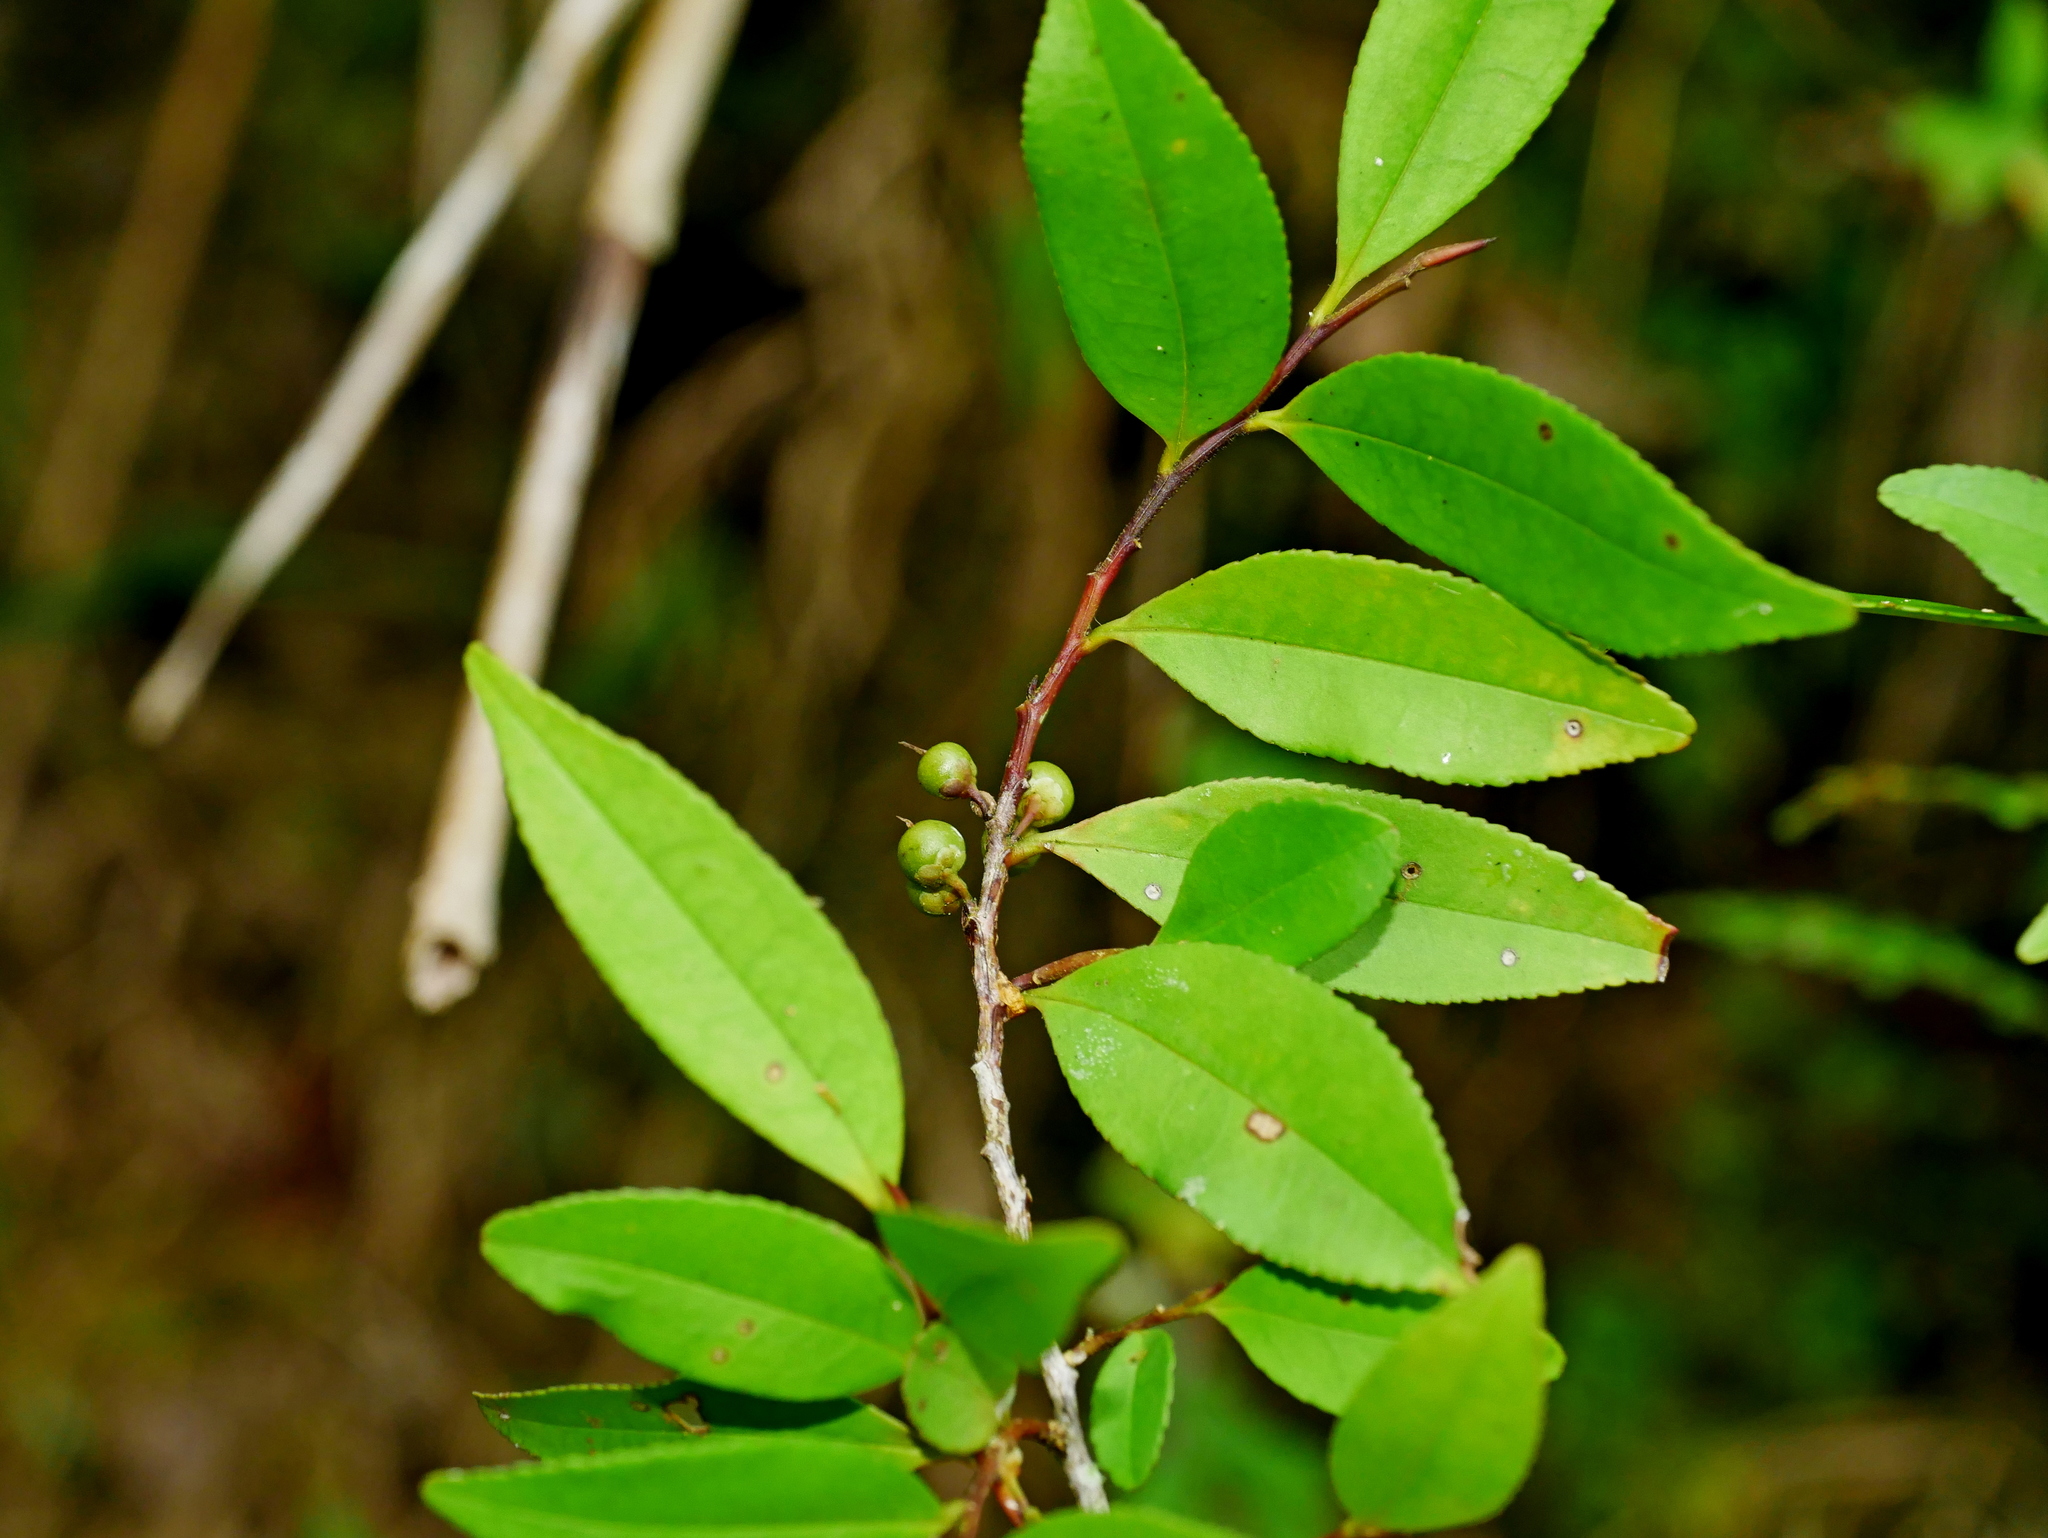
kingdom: Plantae
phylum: Tracheophyta
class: Magnoliopsida
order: Ericales
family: Pentaphylacaceae
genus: Eurya
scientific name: Eurya nitida
